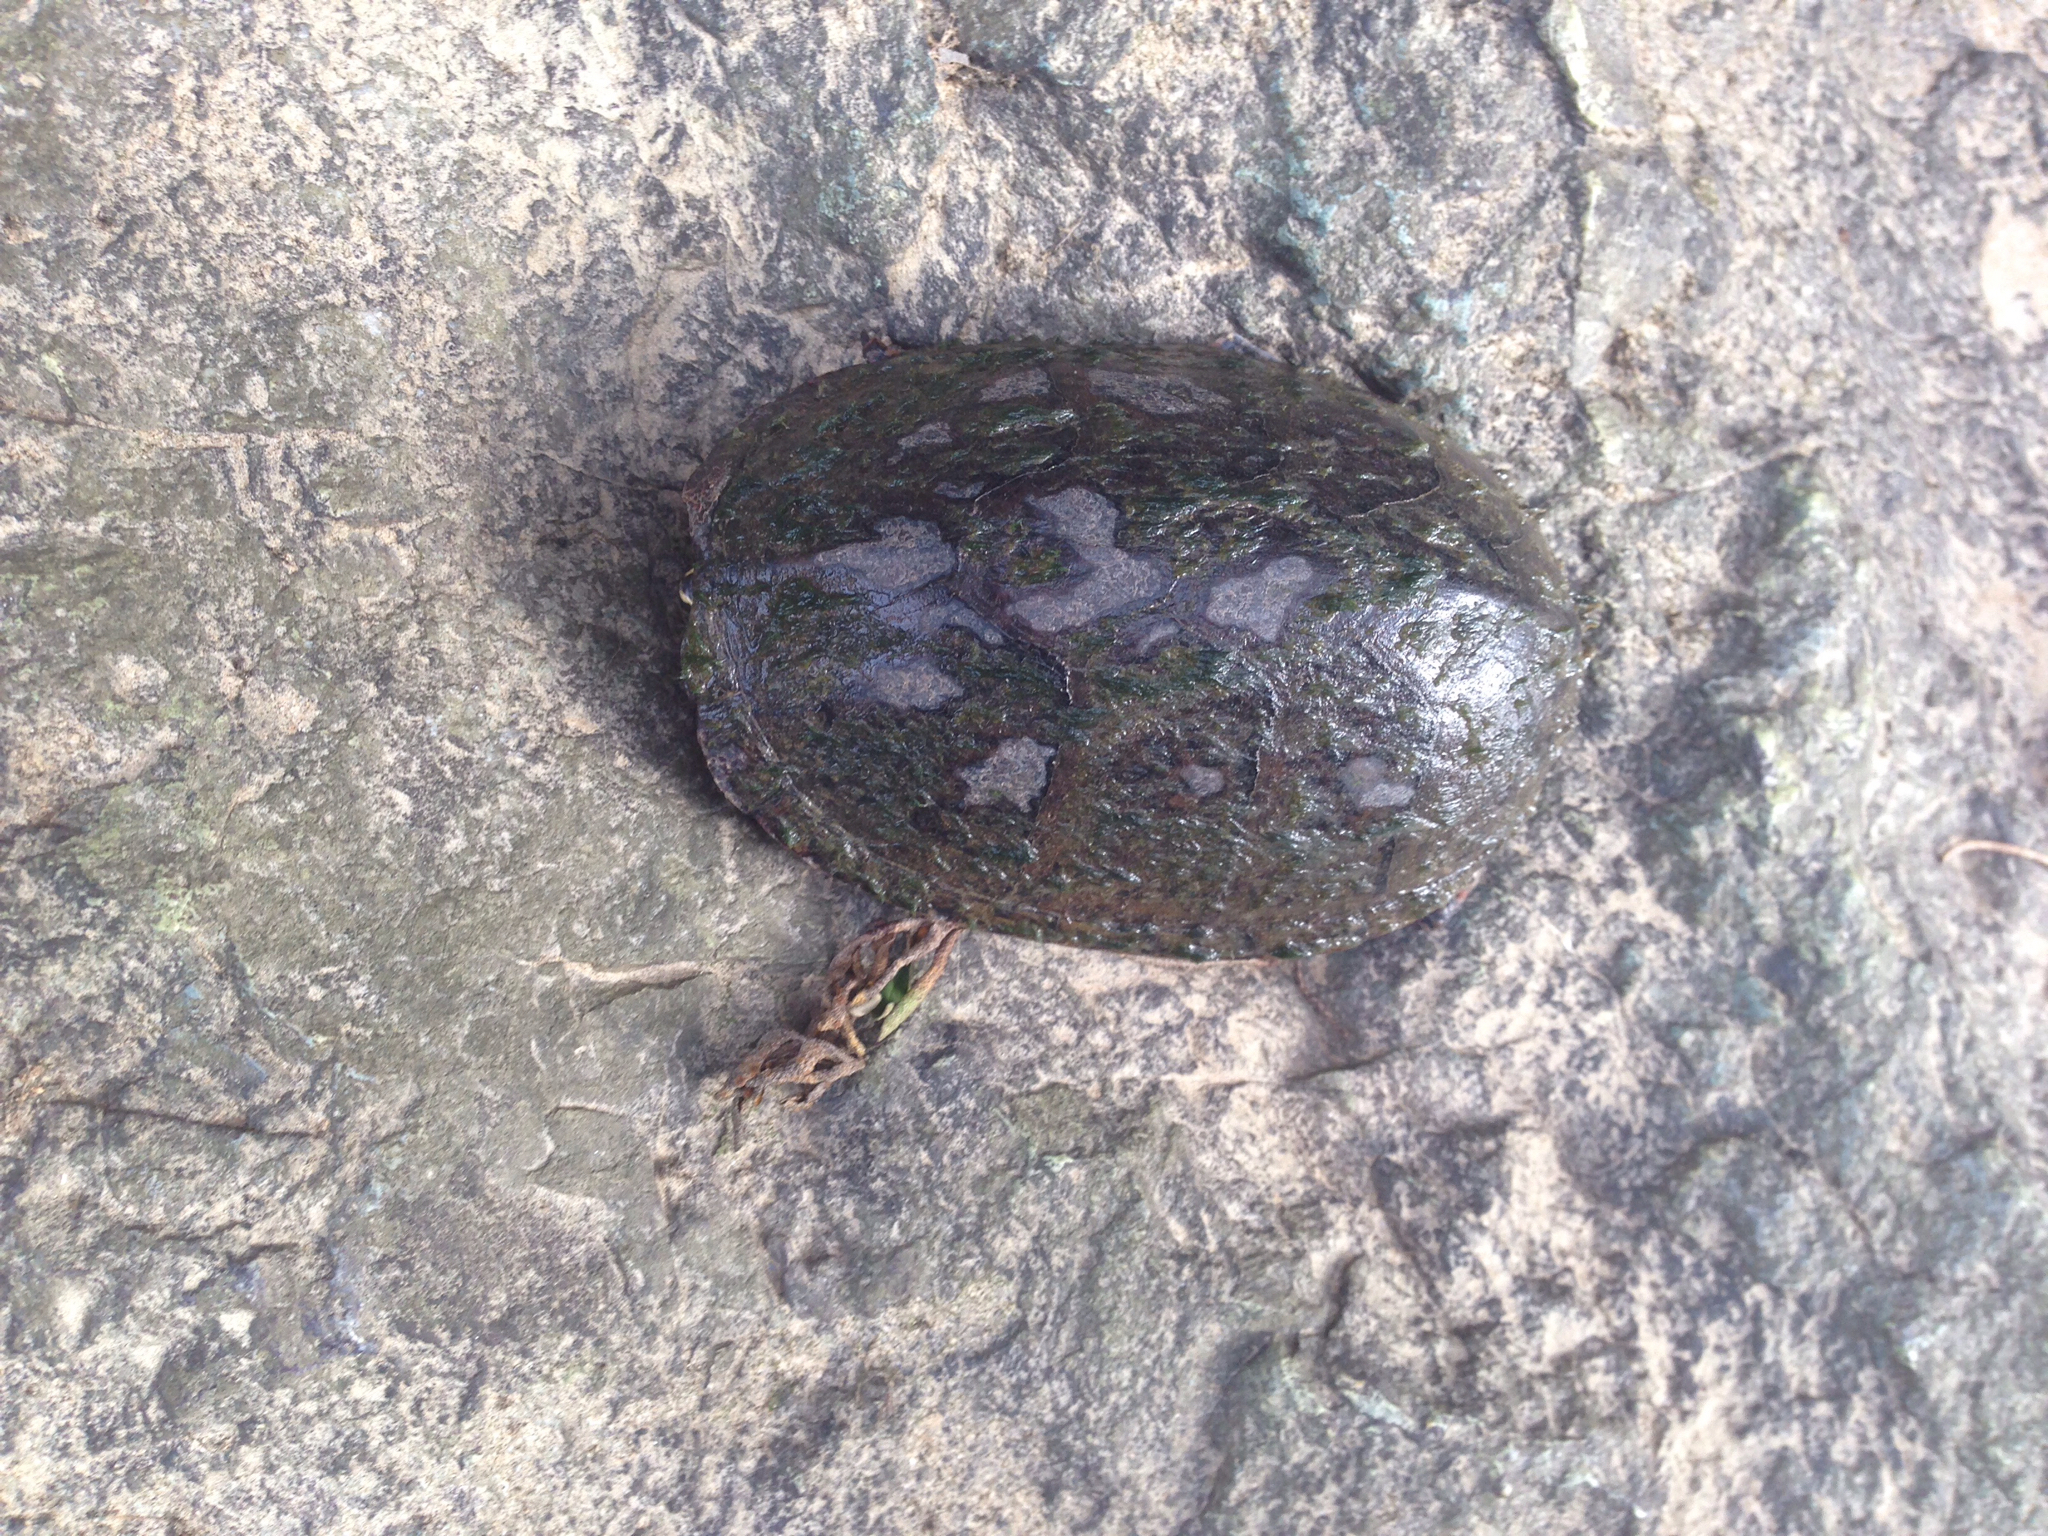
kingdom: Animalia
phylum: Chordata
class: Testudines
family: Kinosternidae
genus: Kinosternon
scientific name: Kinosternon subrubrum
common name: Eastern mud turtle
